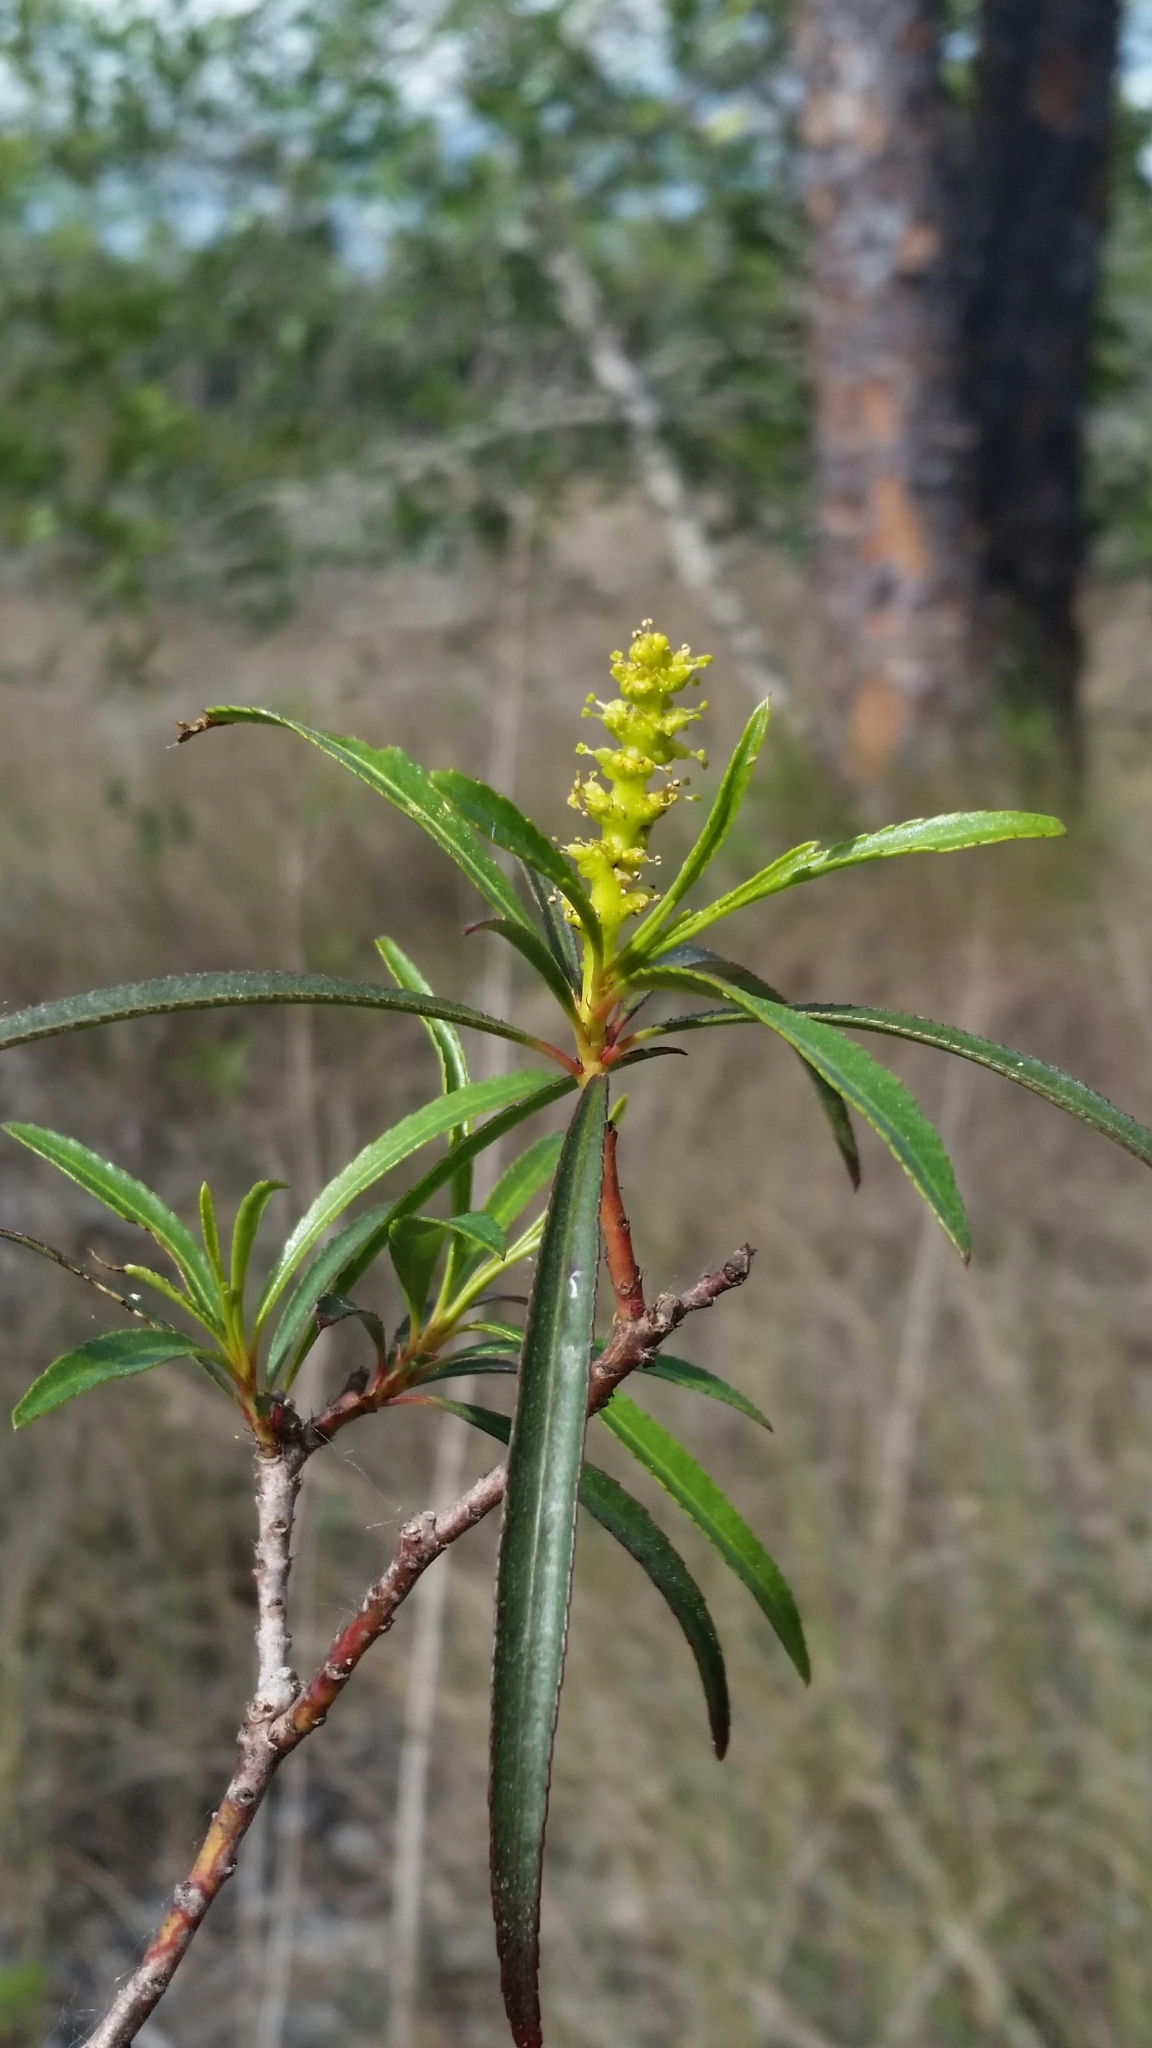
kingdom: Plantae
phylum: Tracheophyta
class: Magnoliopsida
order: Malpighiales
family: Euphorbiaceae
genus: Stillingia
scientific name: Stillingia aquatica
